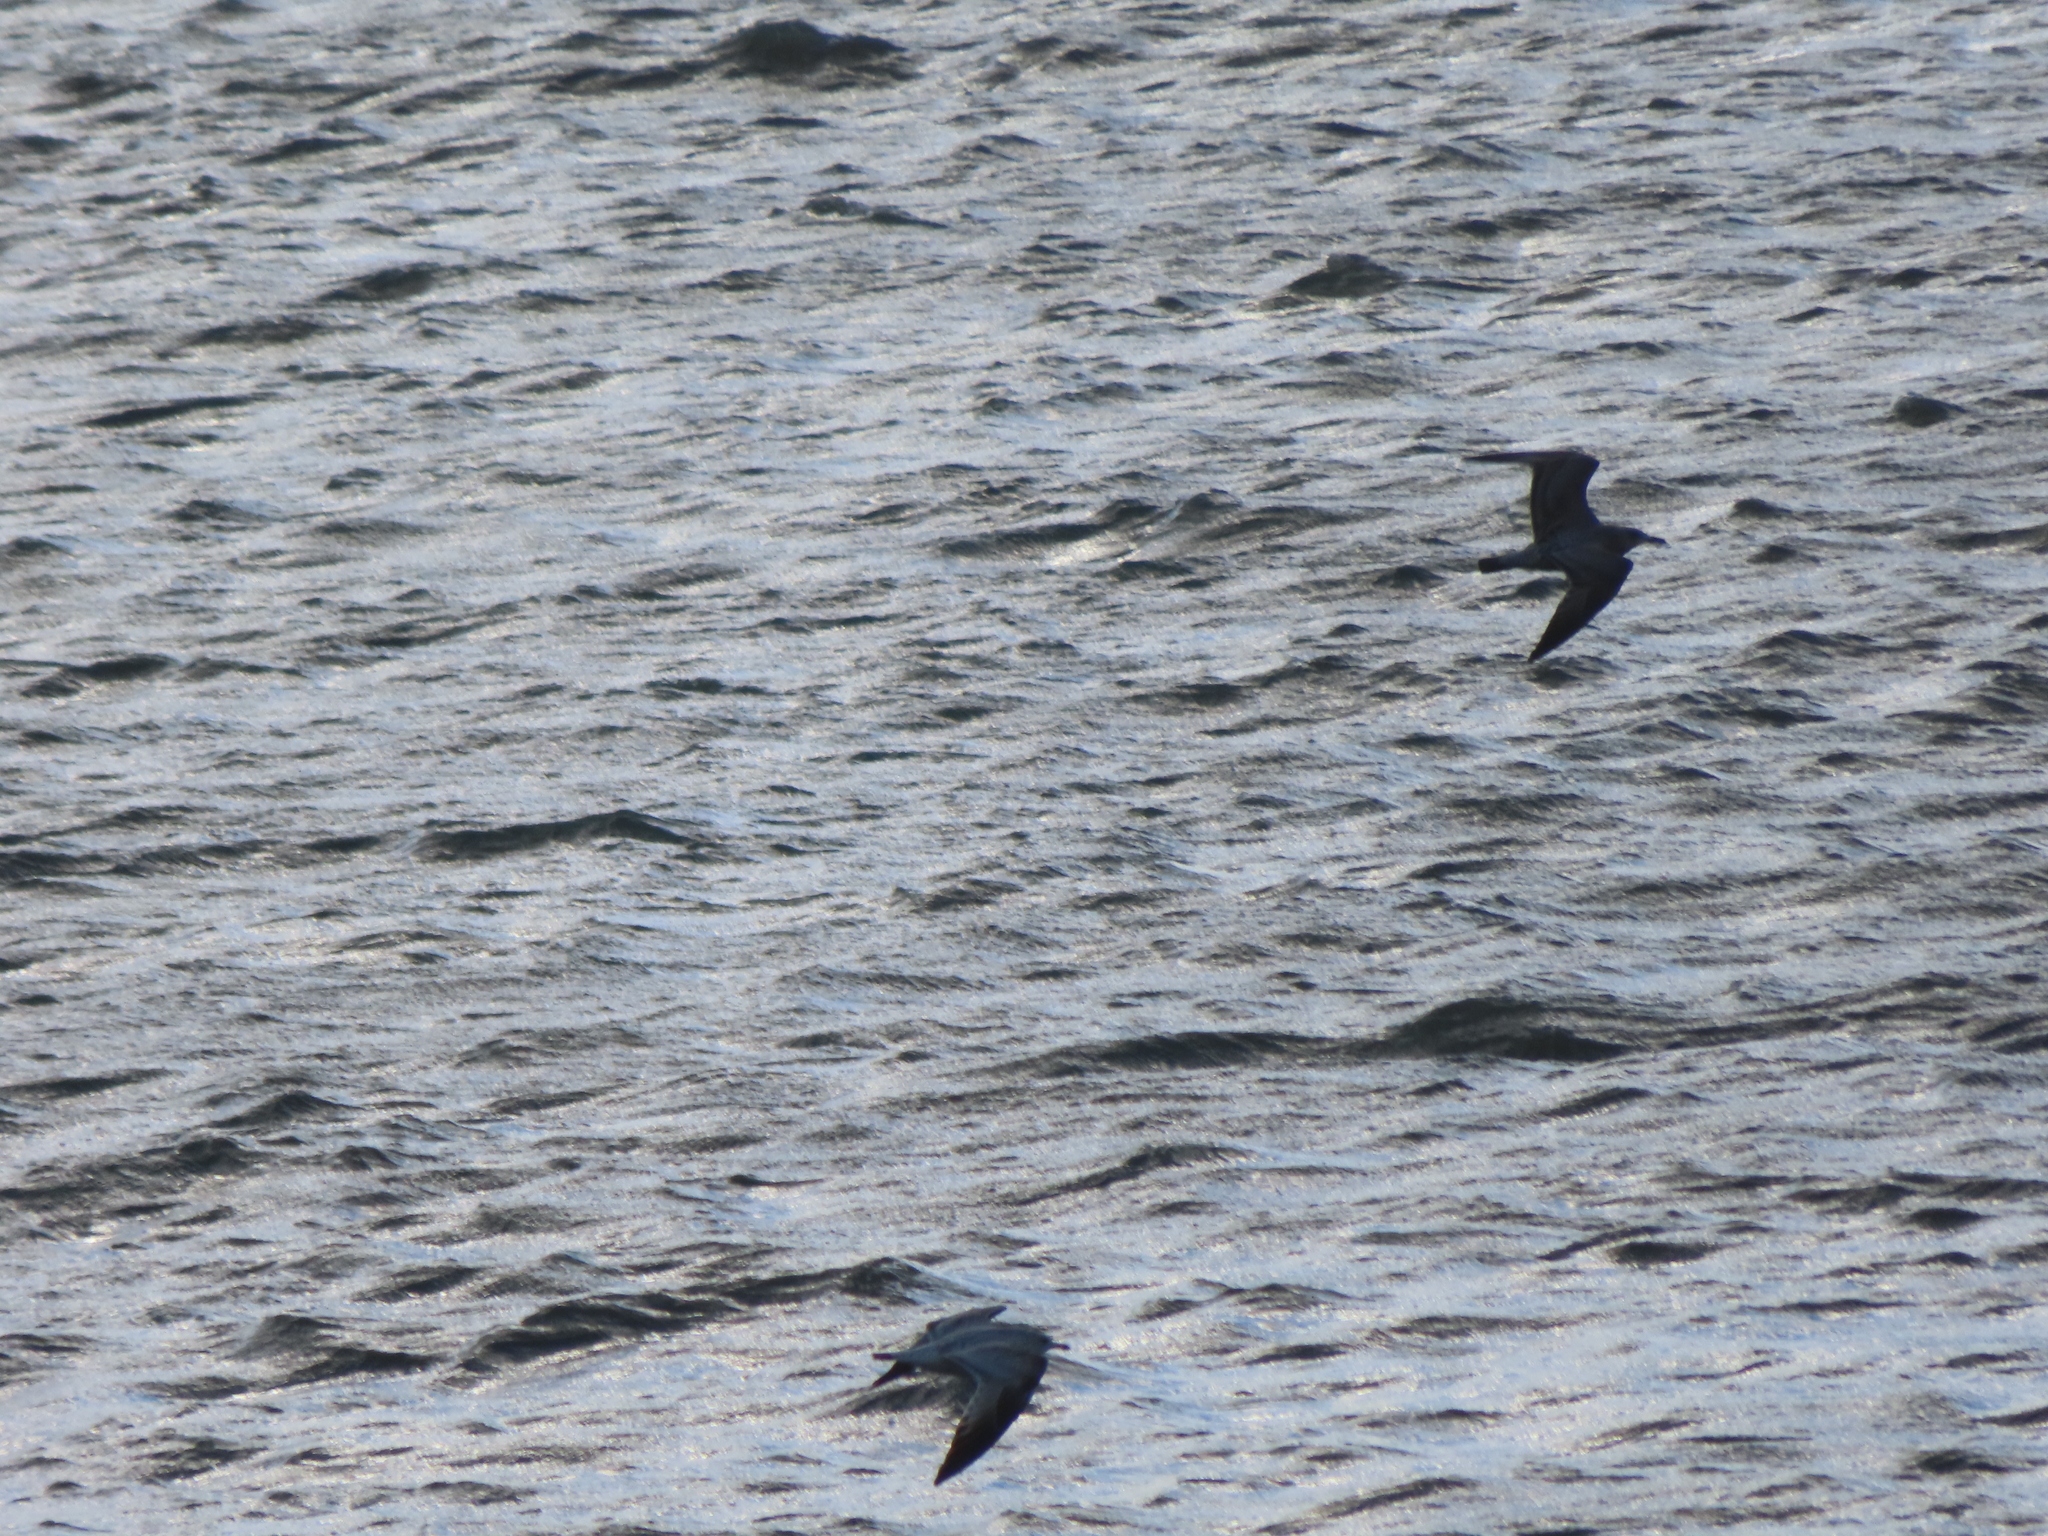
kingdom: Animalia
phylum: Chordata
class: Aves
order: Charadriiformes
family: Laridae
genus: Larus
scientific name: Larus delawarensis
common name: Ring-billed gull
